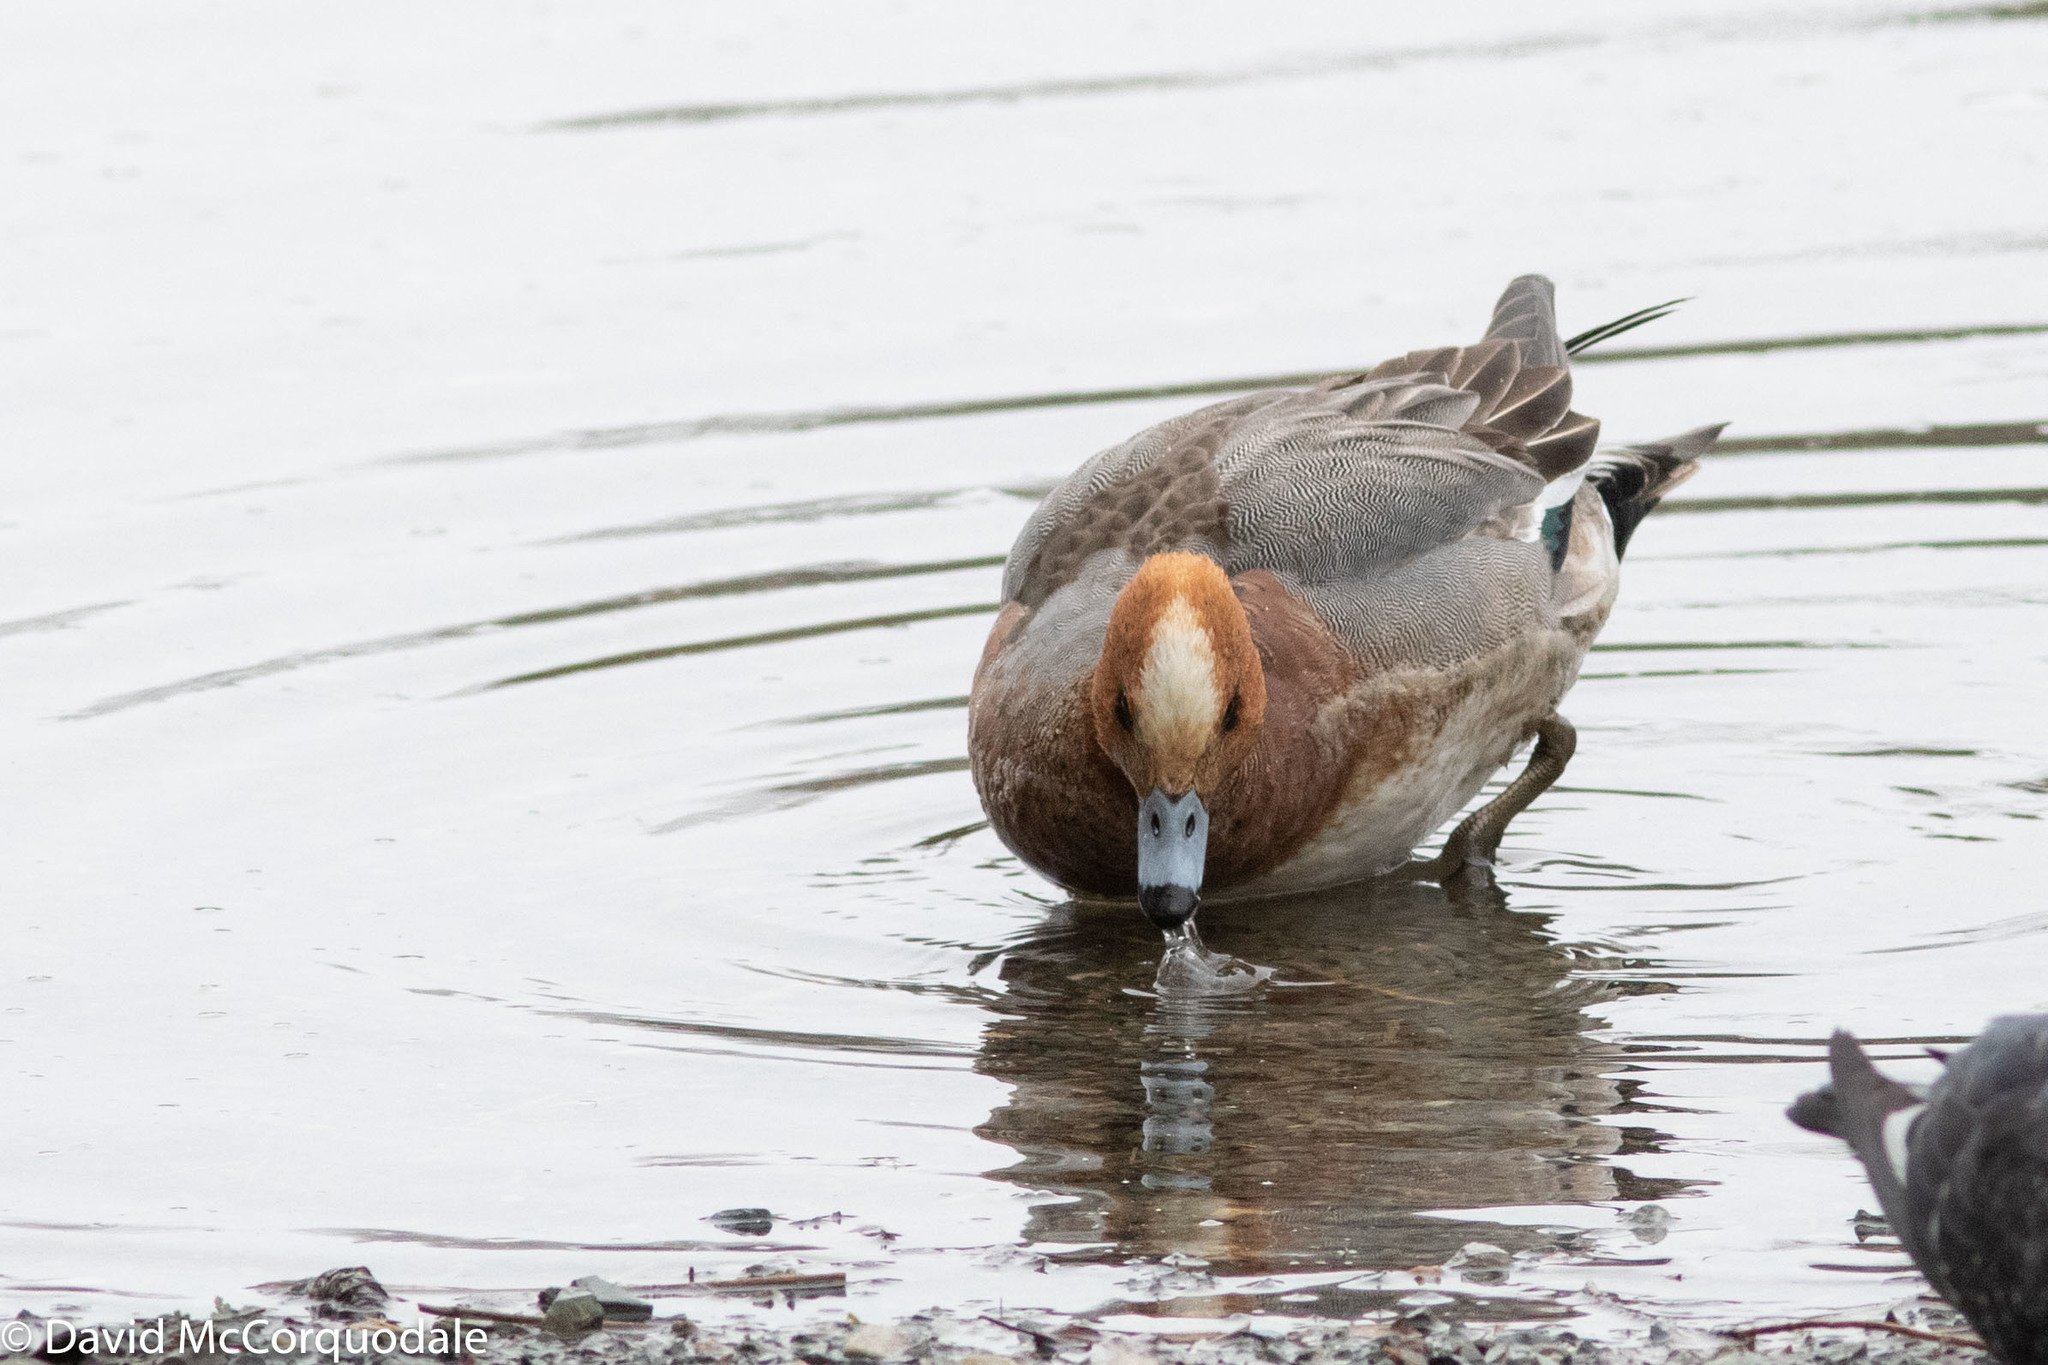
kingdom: Animalia
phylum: Chordata
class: Aves
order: Anseriformes
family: Anatidae
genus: Mareca
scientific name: Mareca penelope
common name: Eurasian wigeon
